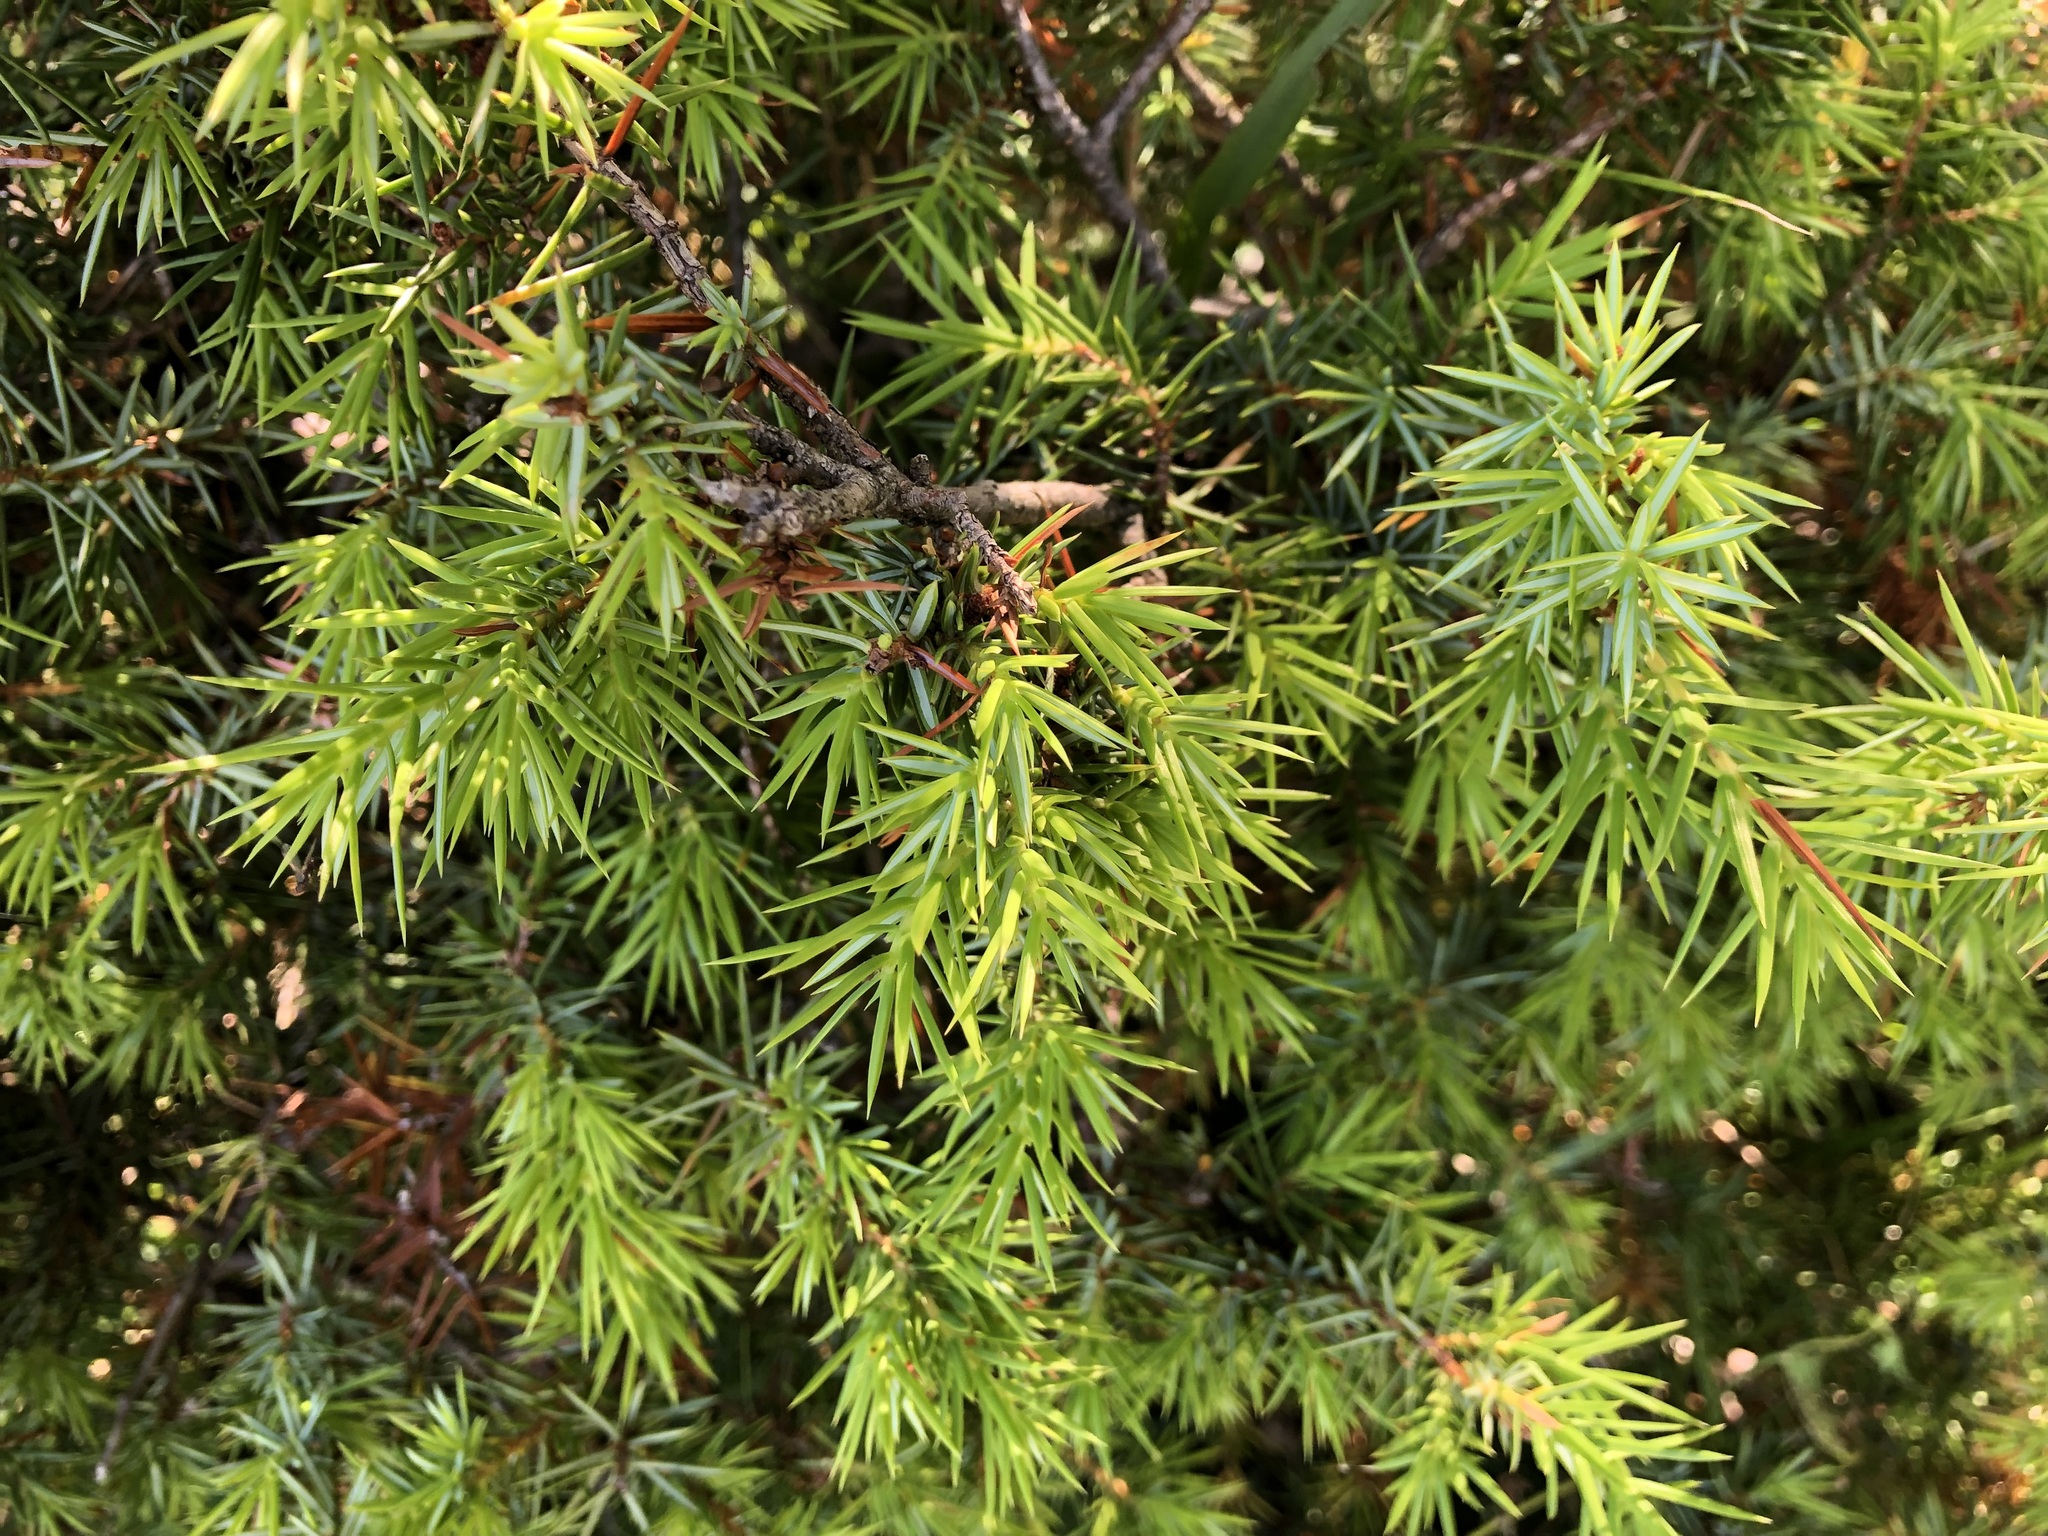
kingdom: Plantae
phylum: Tracheophyta
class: Pinopsida
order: Pinales
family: Cupressaceae
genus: Juniperus
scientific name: Juniperus communis
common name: Common juniper
